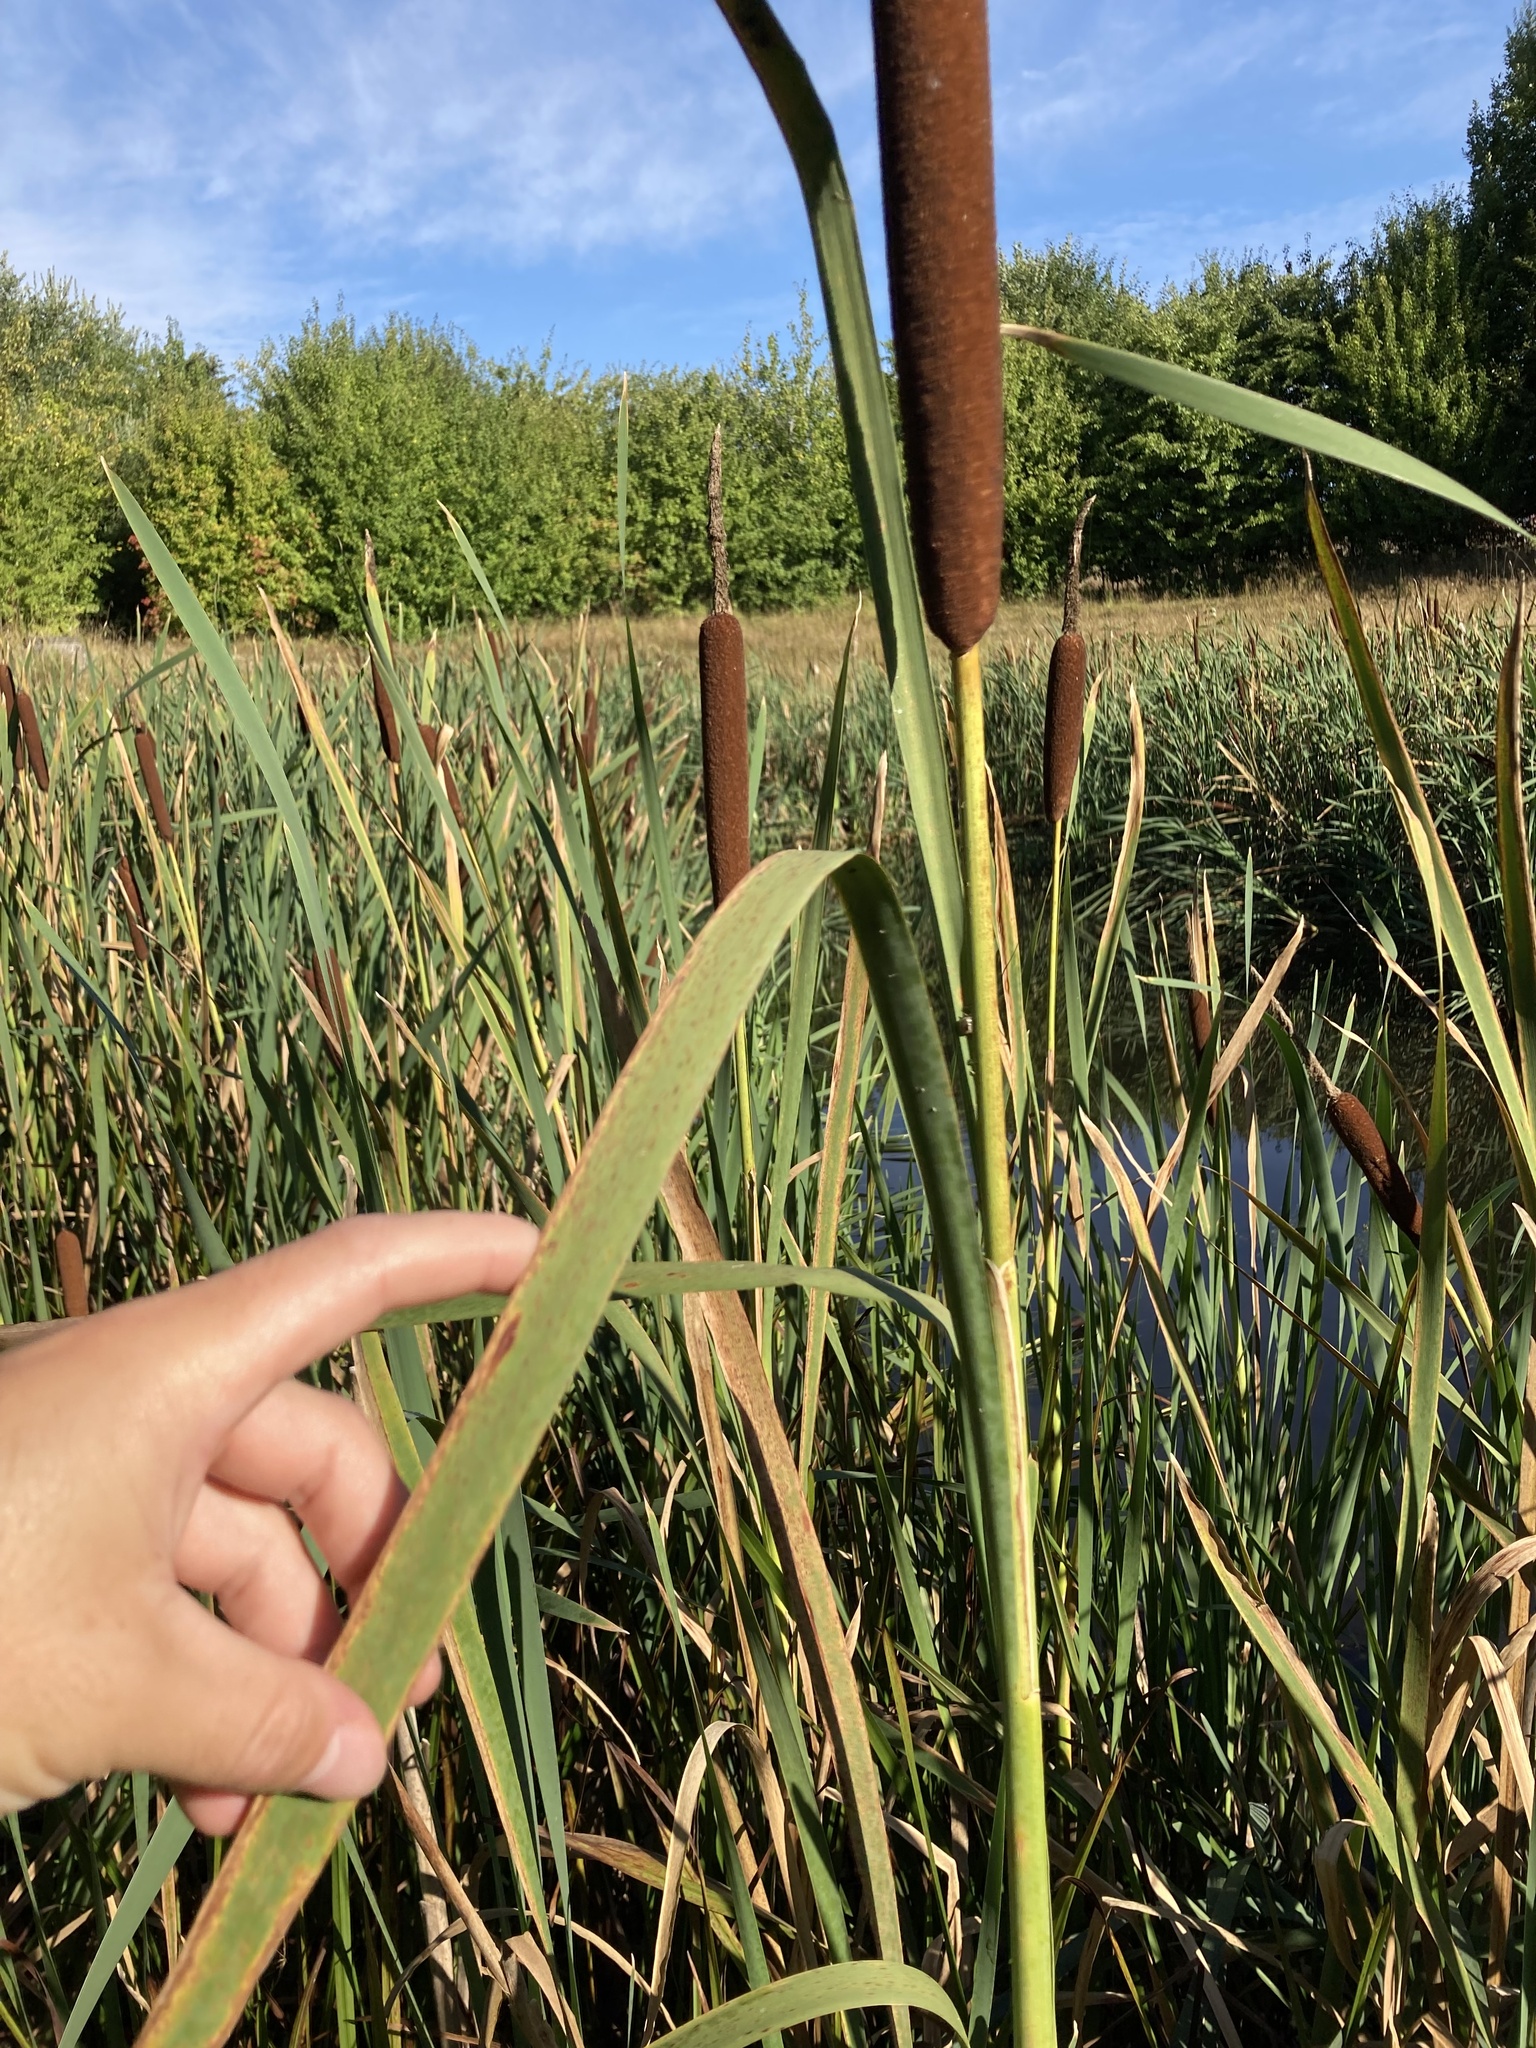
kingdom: Plantae
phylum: Tracheophyta
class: Liliopsida
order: Poales
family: Typhaceae
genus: Typha
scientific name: Typha latifolia
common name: Broadleaf cattail
